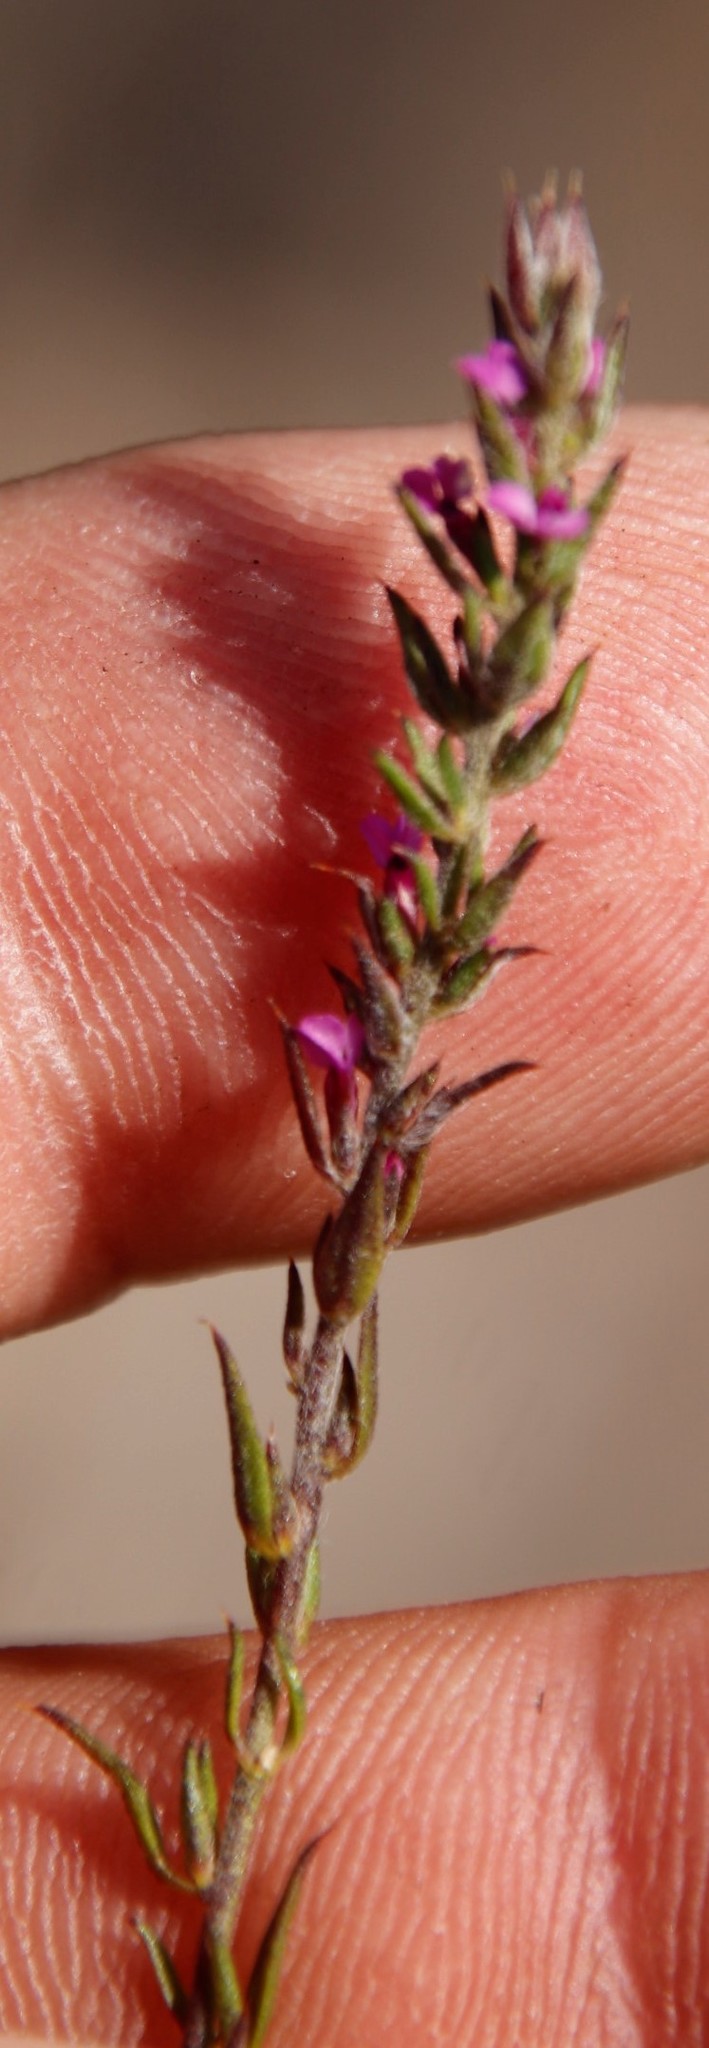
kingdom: Plantae
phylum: Tracheophyta
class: Magnoliopsida
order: Fabales
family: Polygalaceae
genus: Muraltia
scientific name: Muraltia stipulacea
